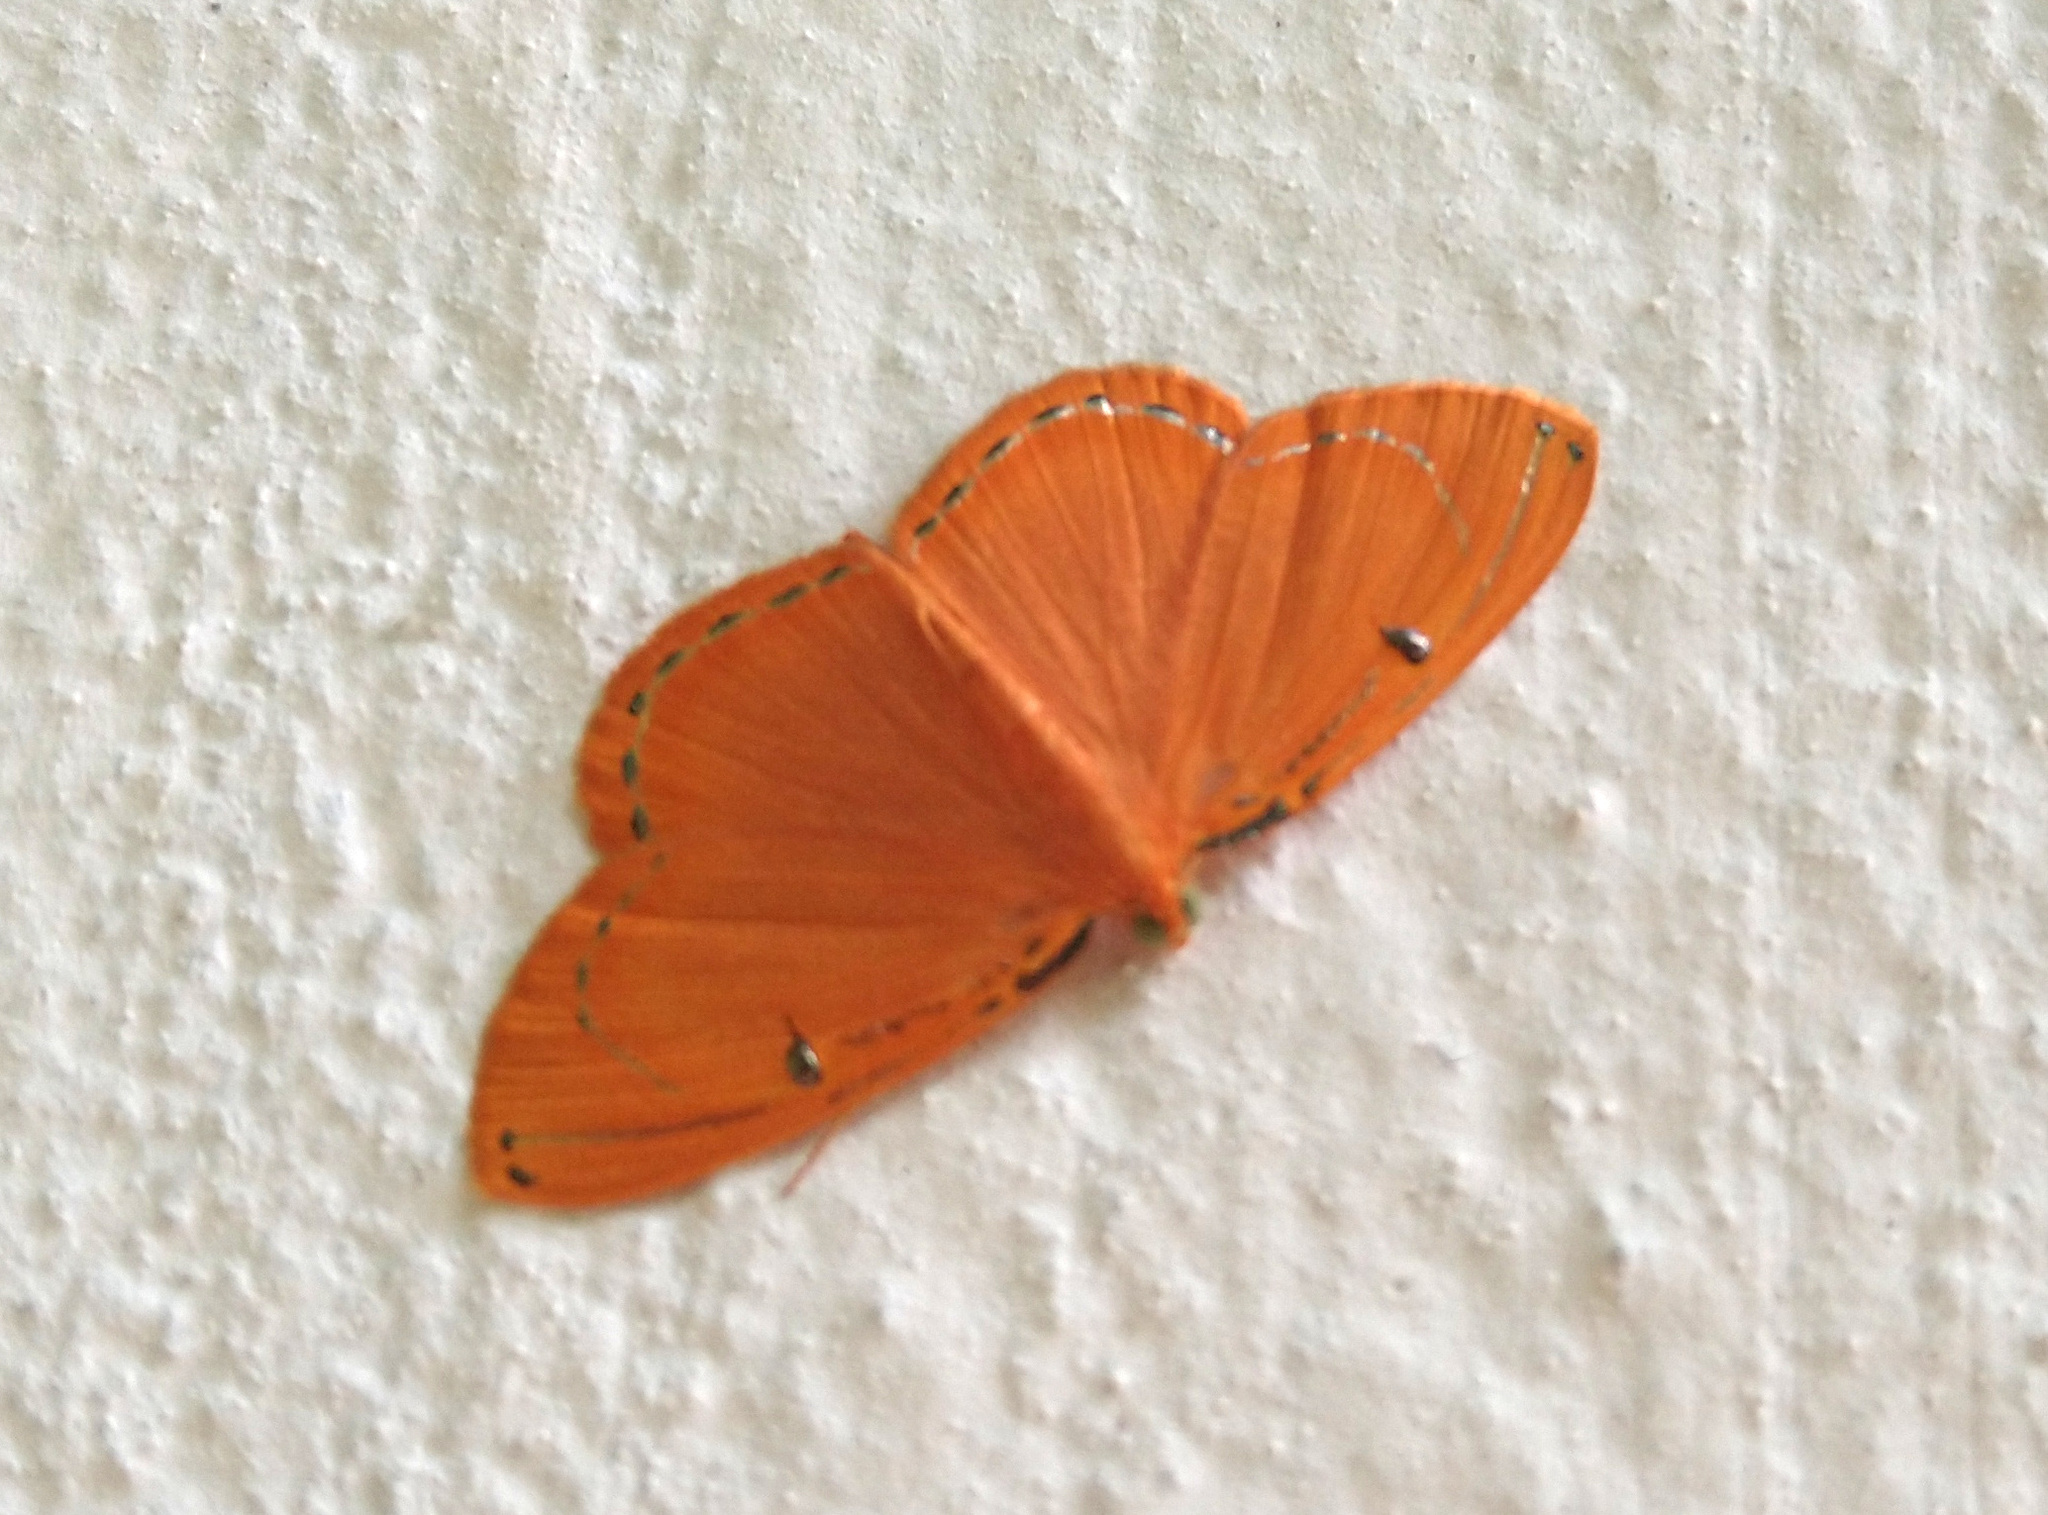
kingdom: Animalia
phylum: Arthropoda
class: Insecta
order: Lepidoptera
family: Geometridae
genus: Palyas
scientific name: Palyas locuples
